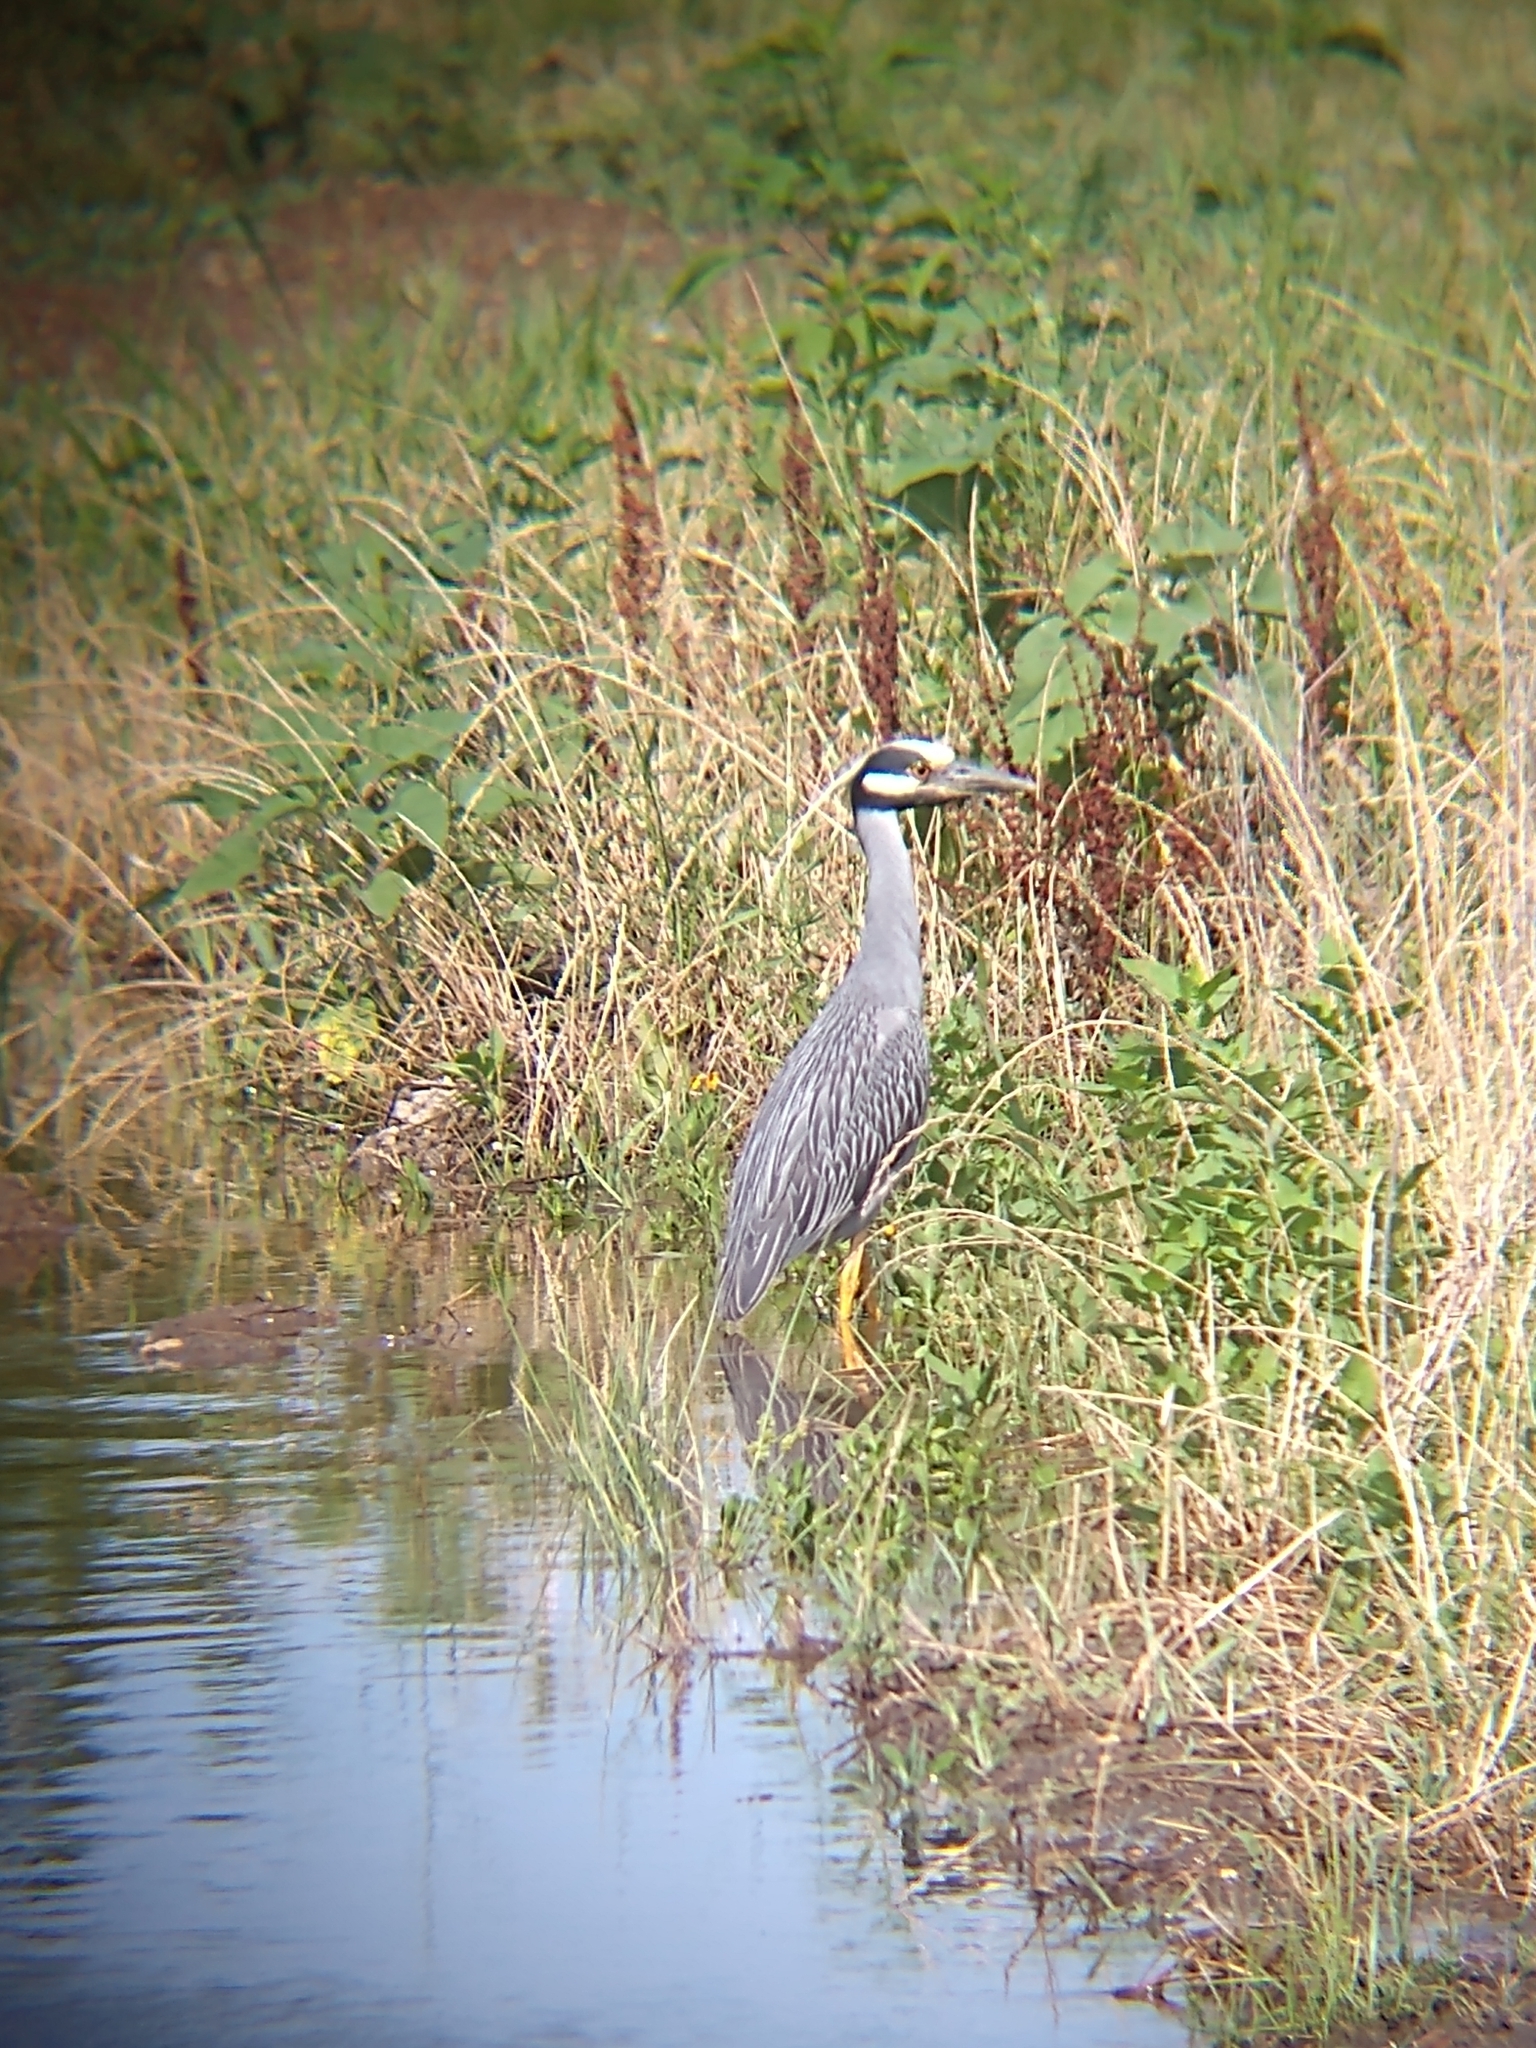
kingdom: Animalia
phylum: Chordata
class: Aves
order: Pelecaniformes
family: Ardeidae
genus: Nyctanassa
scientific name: Nyctanassa violacea
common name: Yellow-crowned night heron
